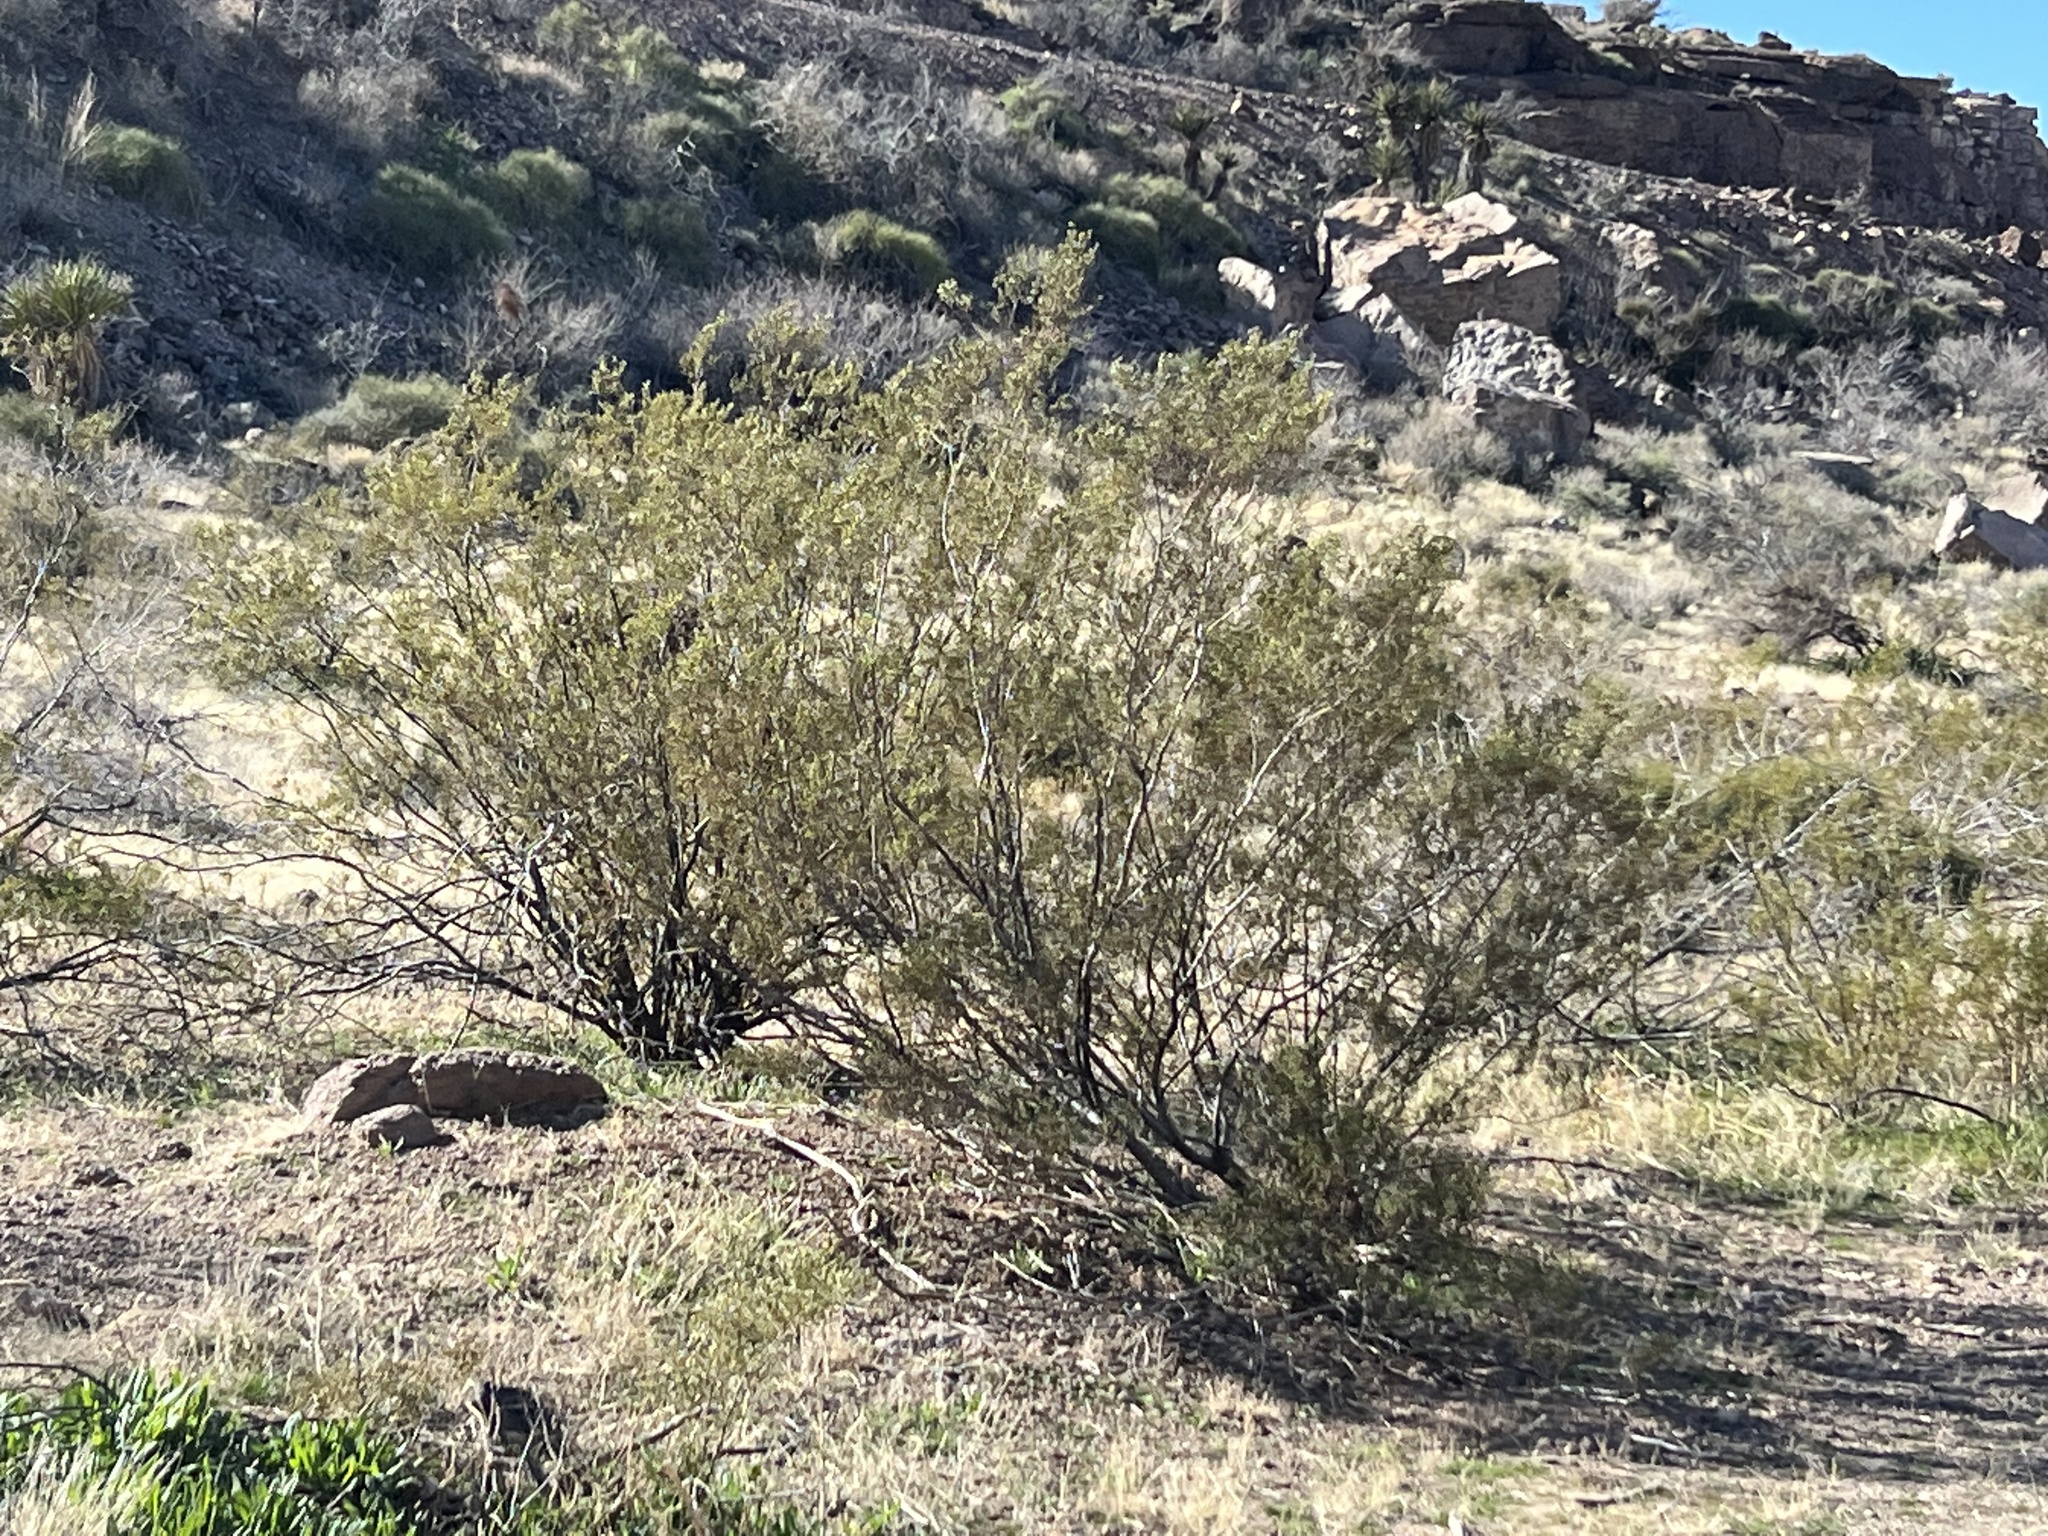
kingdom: Plantae
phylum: Tracheophyta
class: Magnoliopsida
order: Zygophyllales
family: Zygophyllaceae
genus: Larrea
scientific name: Larrea tridentata
